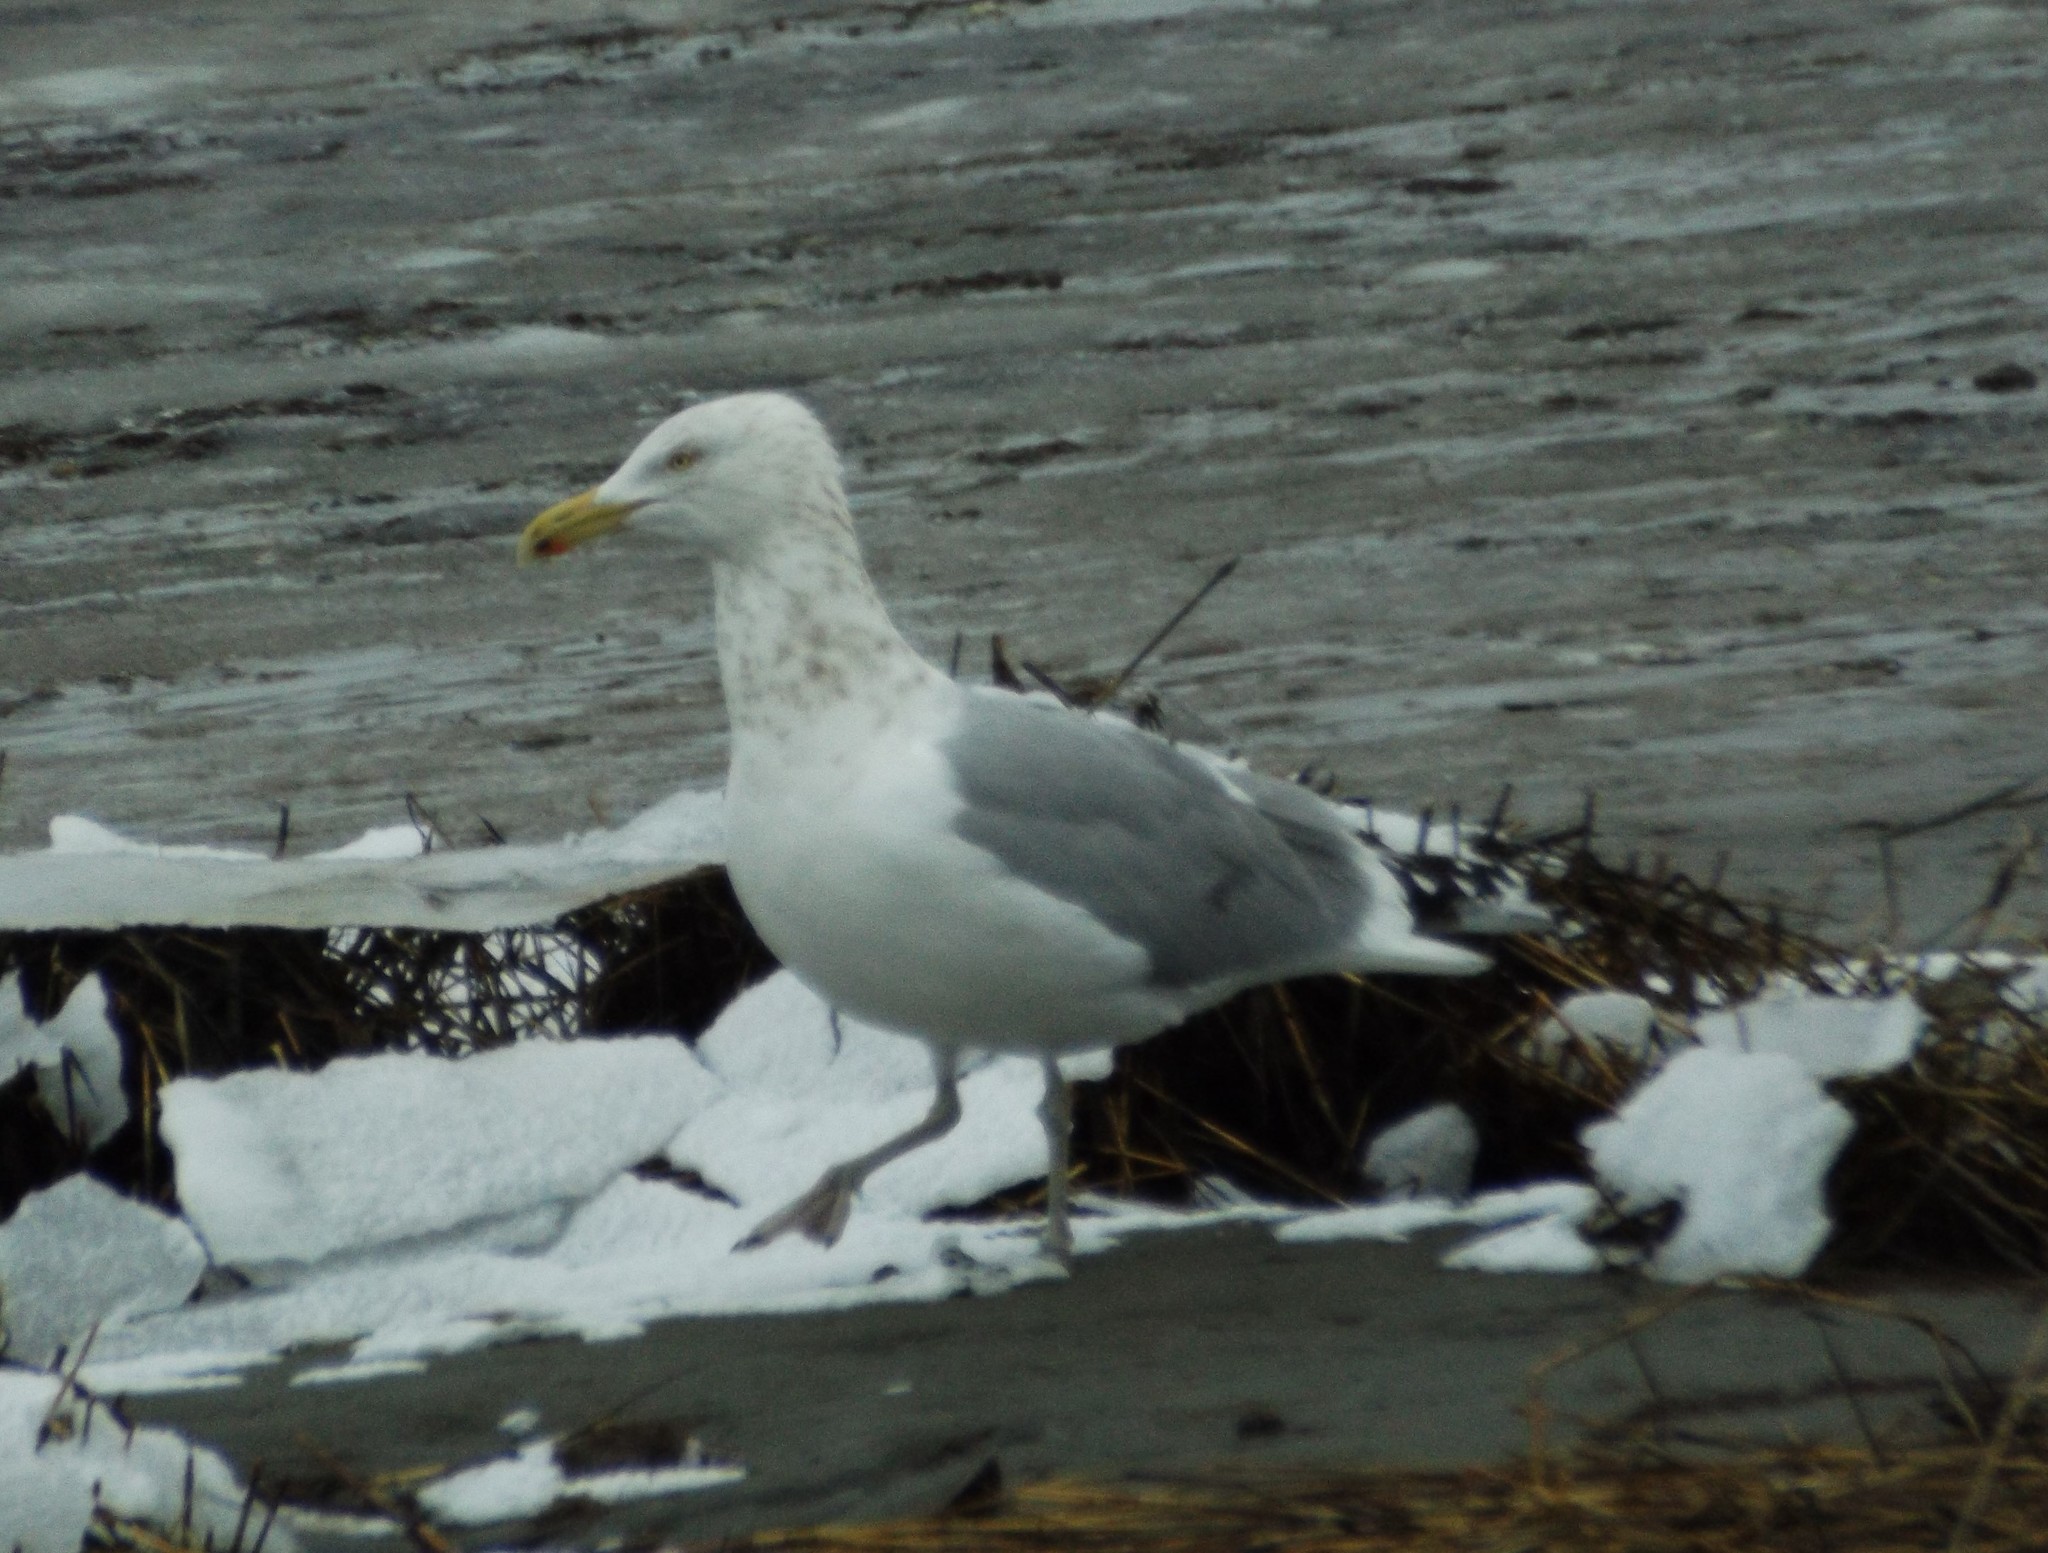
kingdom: Animalia
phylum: Chordata
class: Aves
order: Charadriiformes
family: Laridae
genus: Larus
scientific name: Larus argentatus
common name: Herring gull
